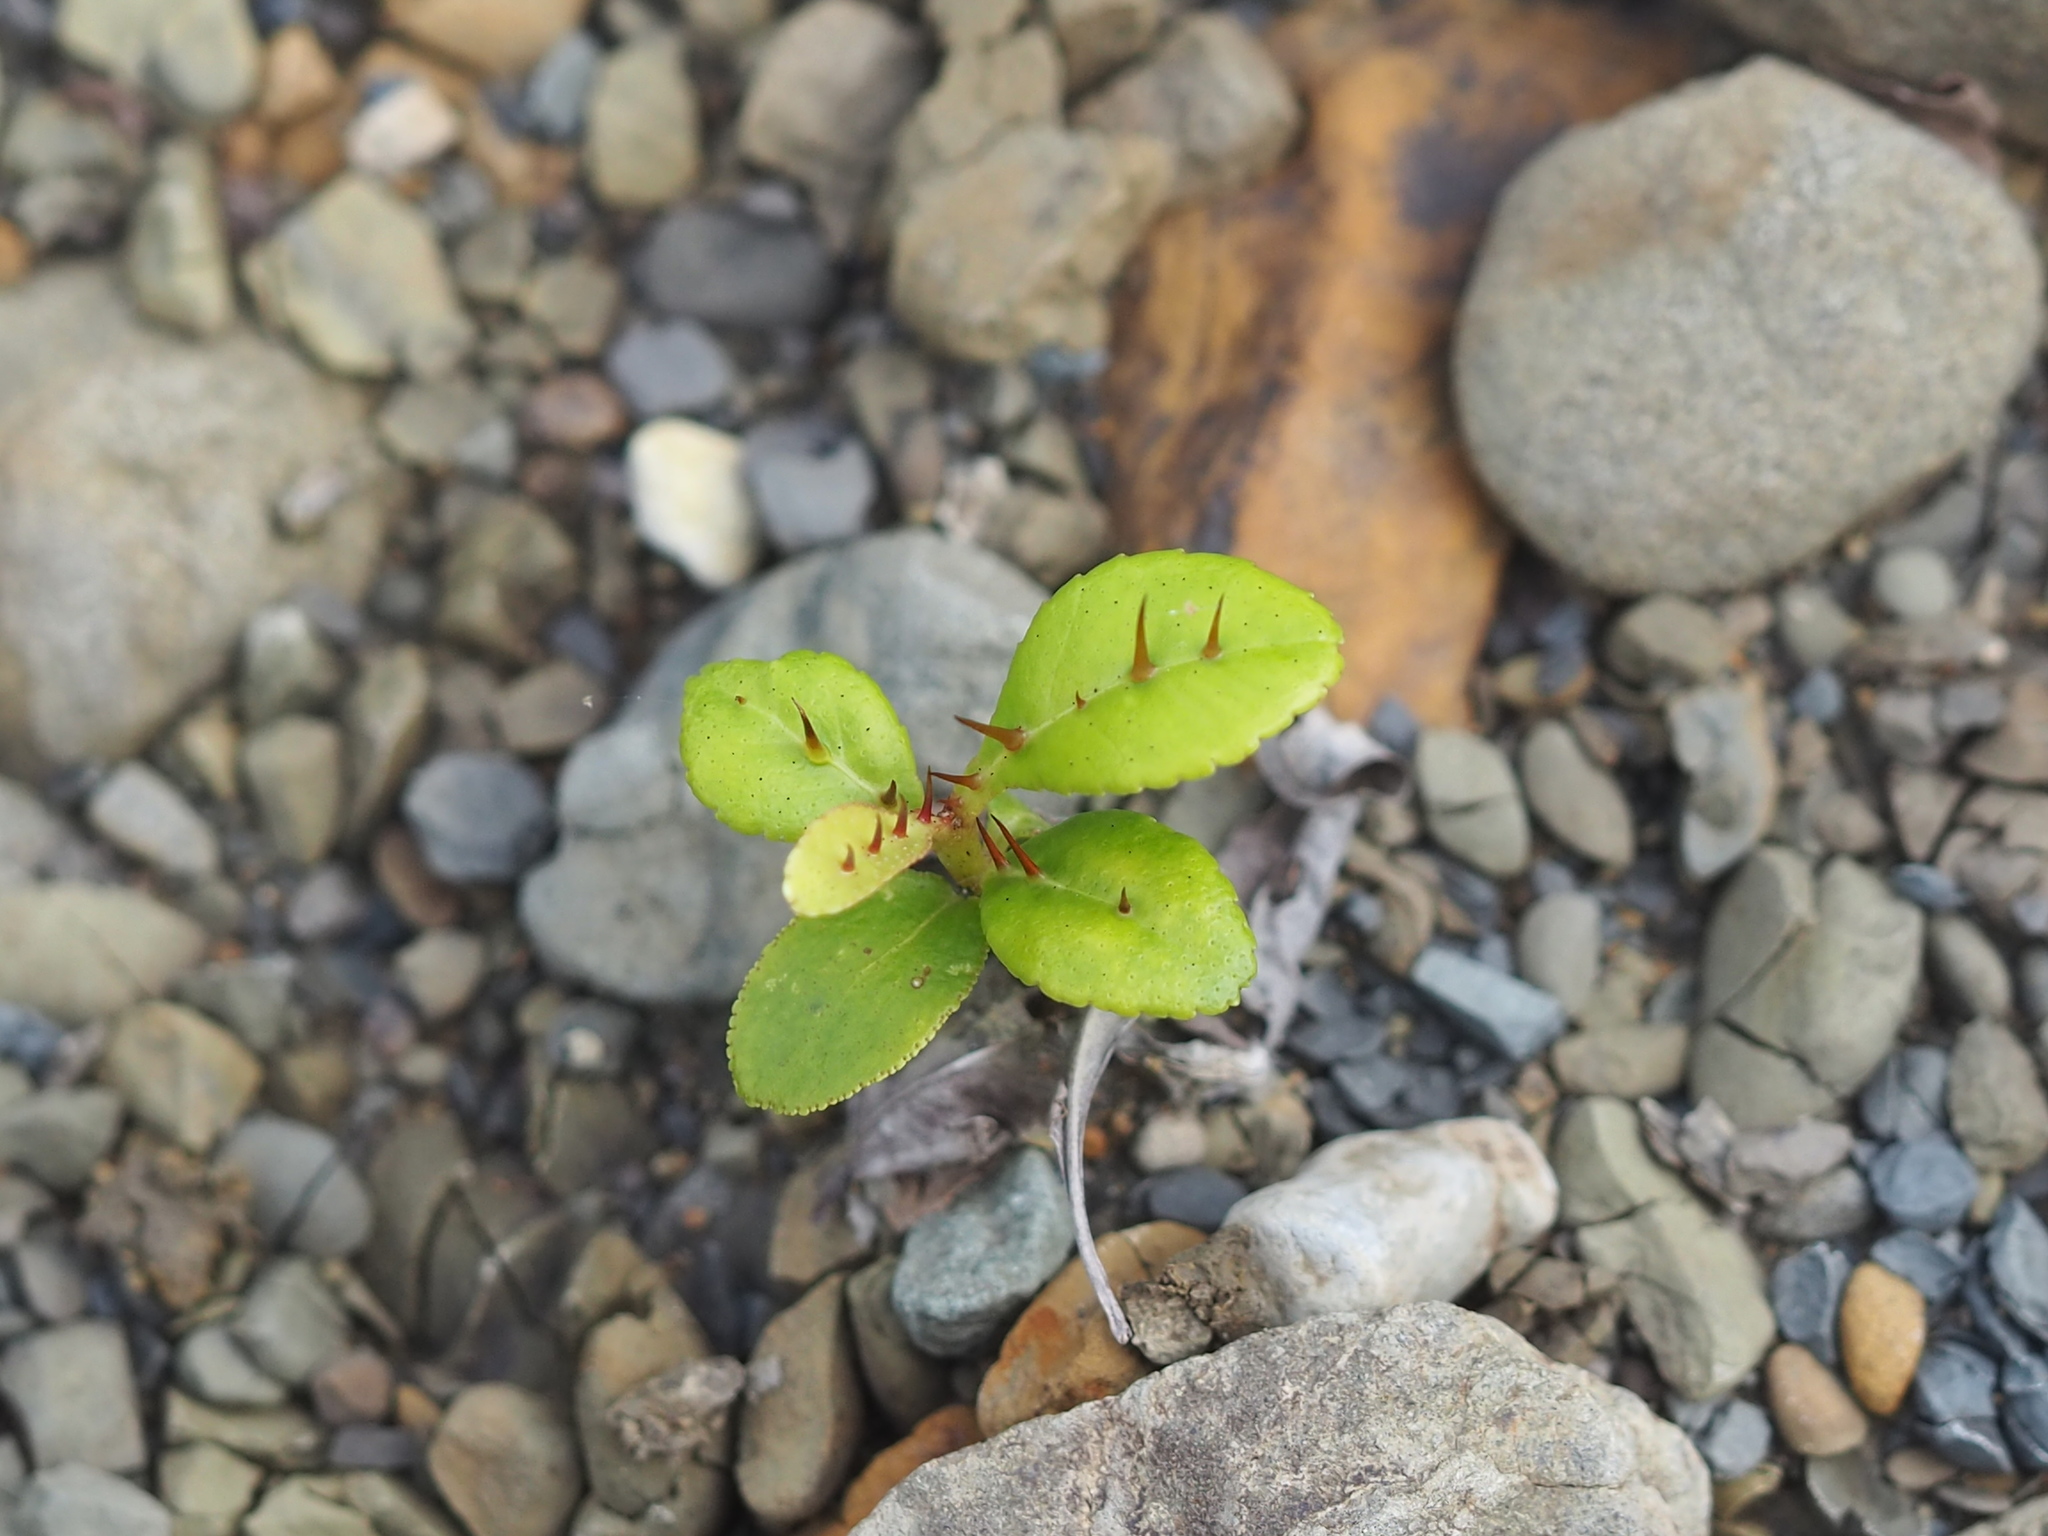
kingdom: Plantae
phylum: Tracheophyta
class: Magnoliopsida
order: Sapindales
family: Rutaceae
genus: Zanthoxylum
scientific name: Zanthoxylum nitidum
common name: Shiny-leaf prickly-ash
